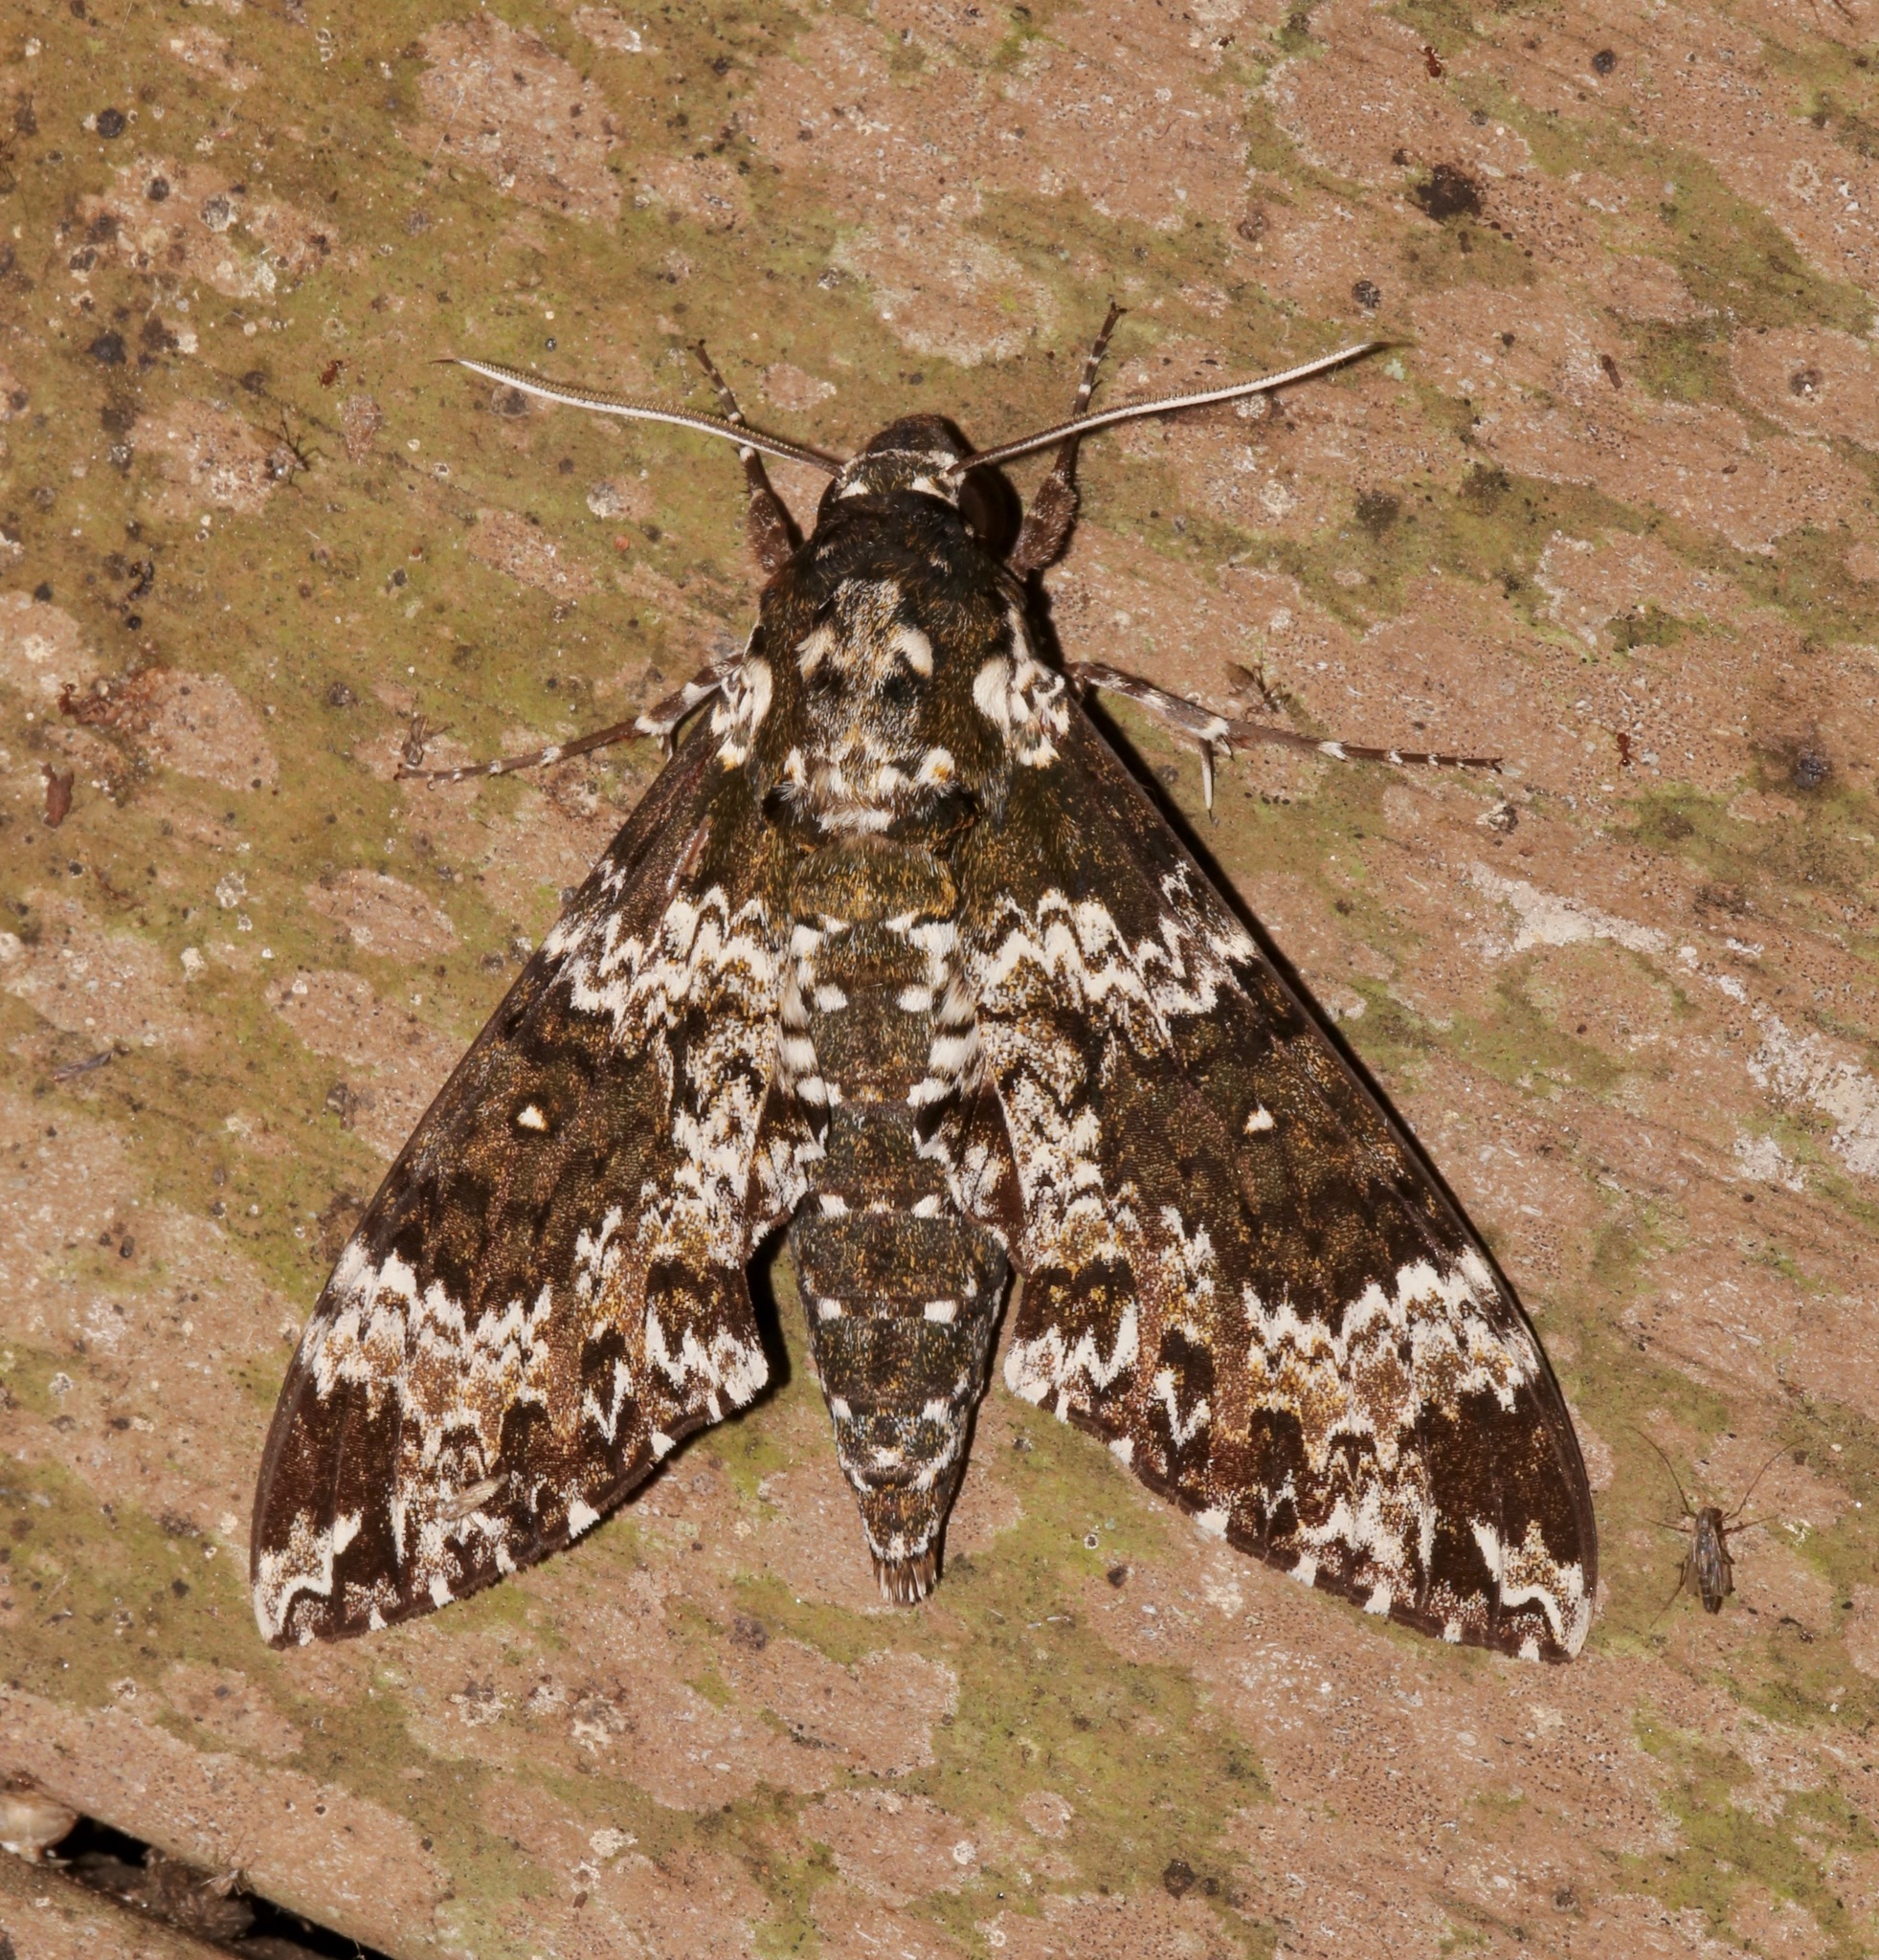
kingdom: Animalia
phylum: Arthropoda
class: Insecta
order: Lepidoptera
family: Sphingidae
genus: Manduca
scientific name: Manduca rustica
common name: Rustic sphinx
